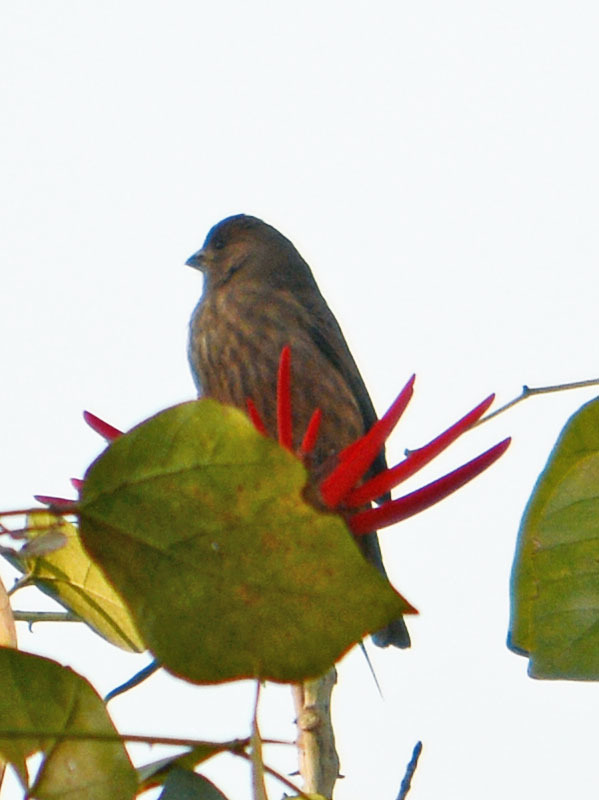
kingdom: Animalia
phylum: Chordata
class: Aves
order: Passeriformes
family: Fringillidae
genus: Haemorhous
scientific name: Haemorhous mexicanus
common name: House finch
